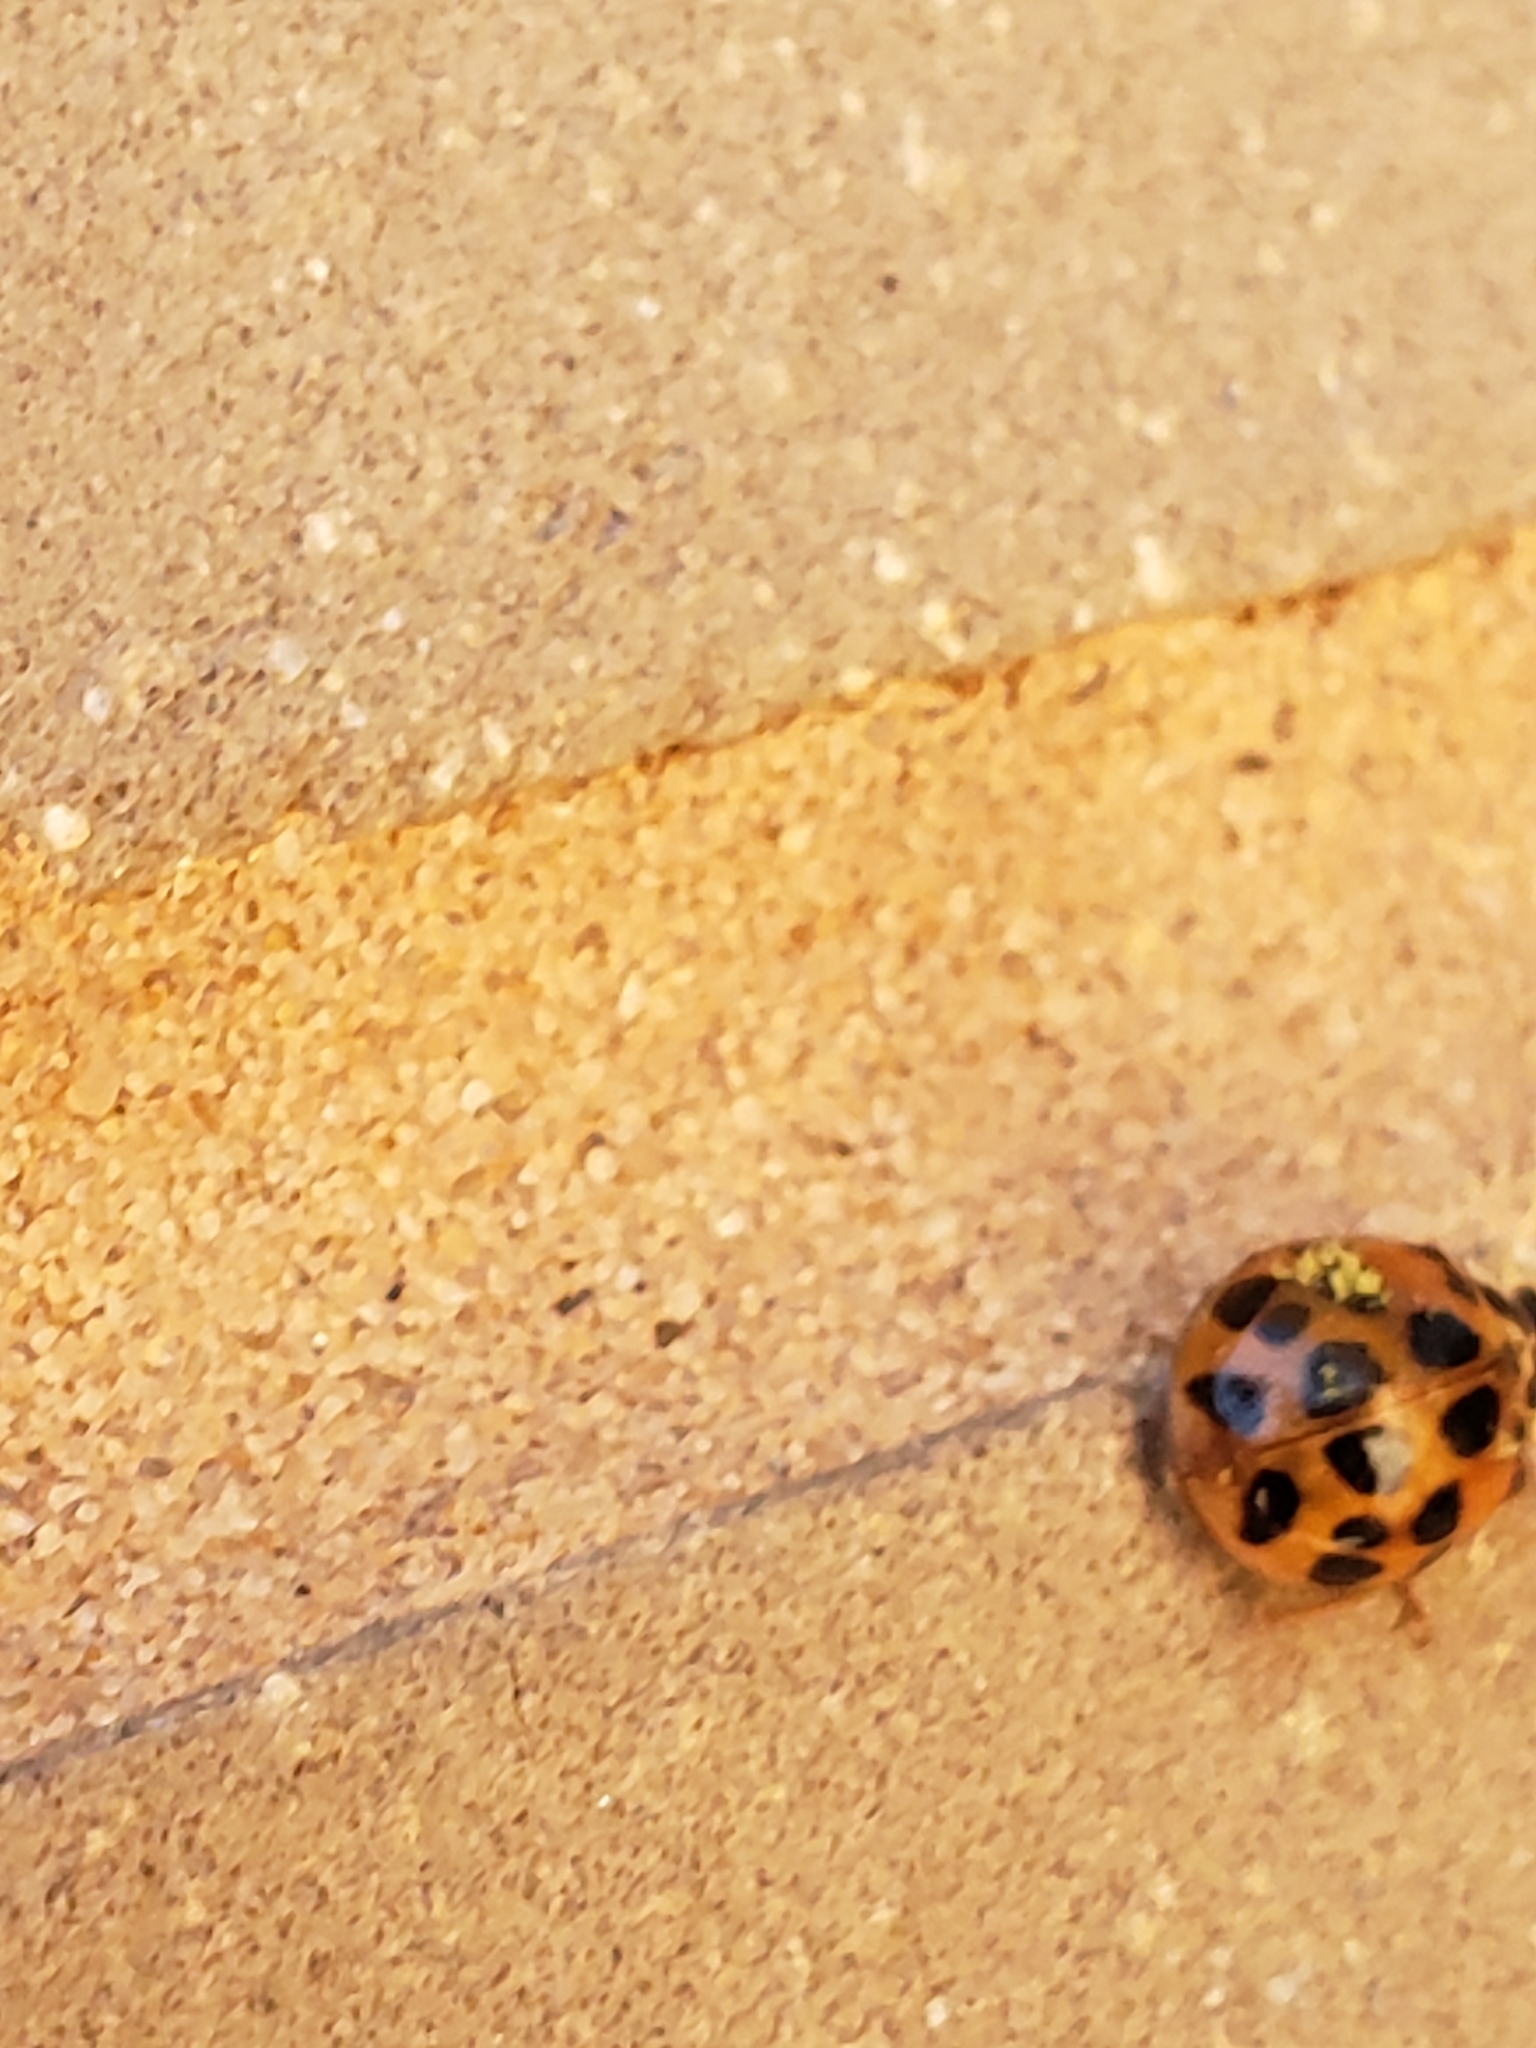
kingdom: Fungi
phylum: Ascomycota
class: Laboulbeniomycetes
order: Laboulbeniales
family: Laboulbeniaceae
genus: Hesperomyces
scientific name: Hesperomyces harmoniae
